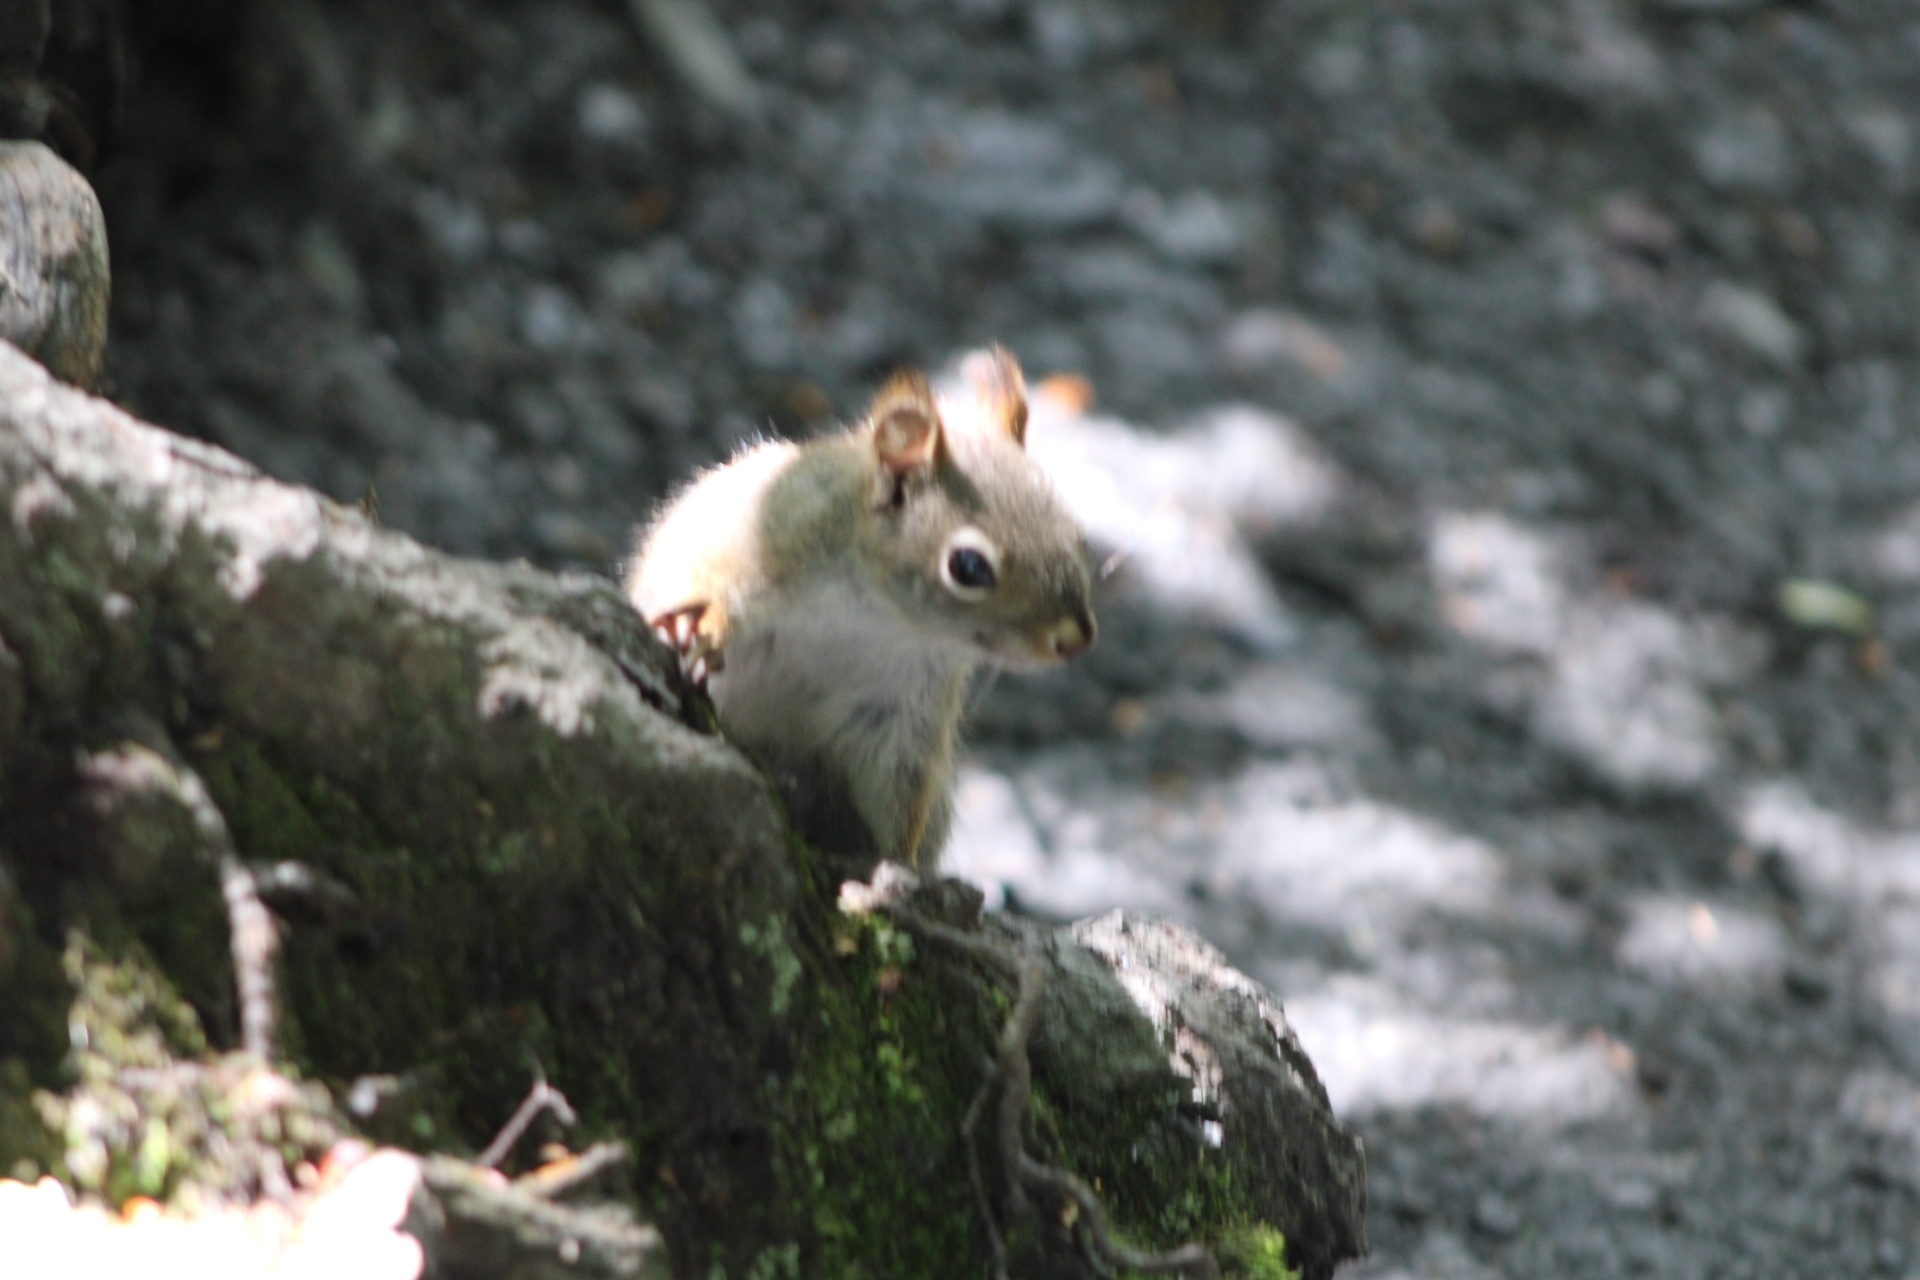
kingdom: Animalia
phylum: Chordata
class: Mammalia
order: Rodentia
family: Sciuridae
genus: Tamiasciurus
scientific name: Tamiasciurus hudsonicus
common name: Red squirrel
